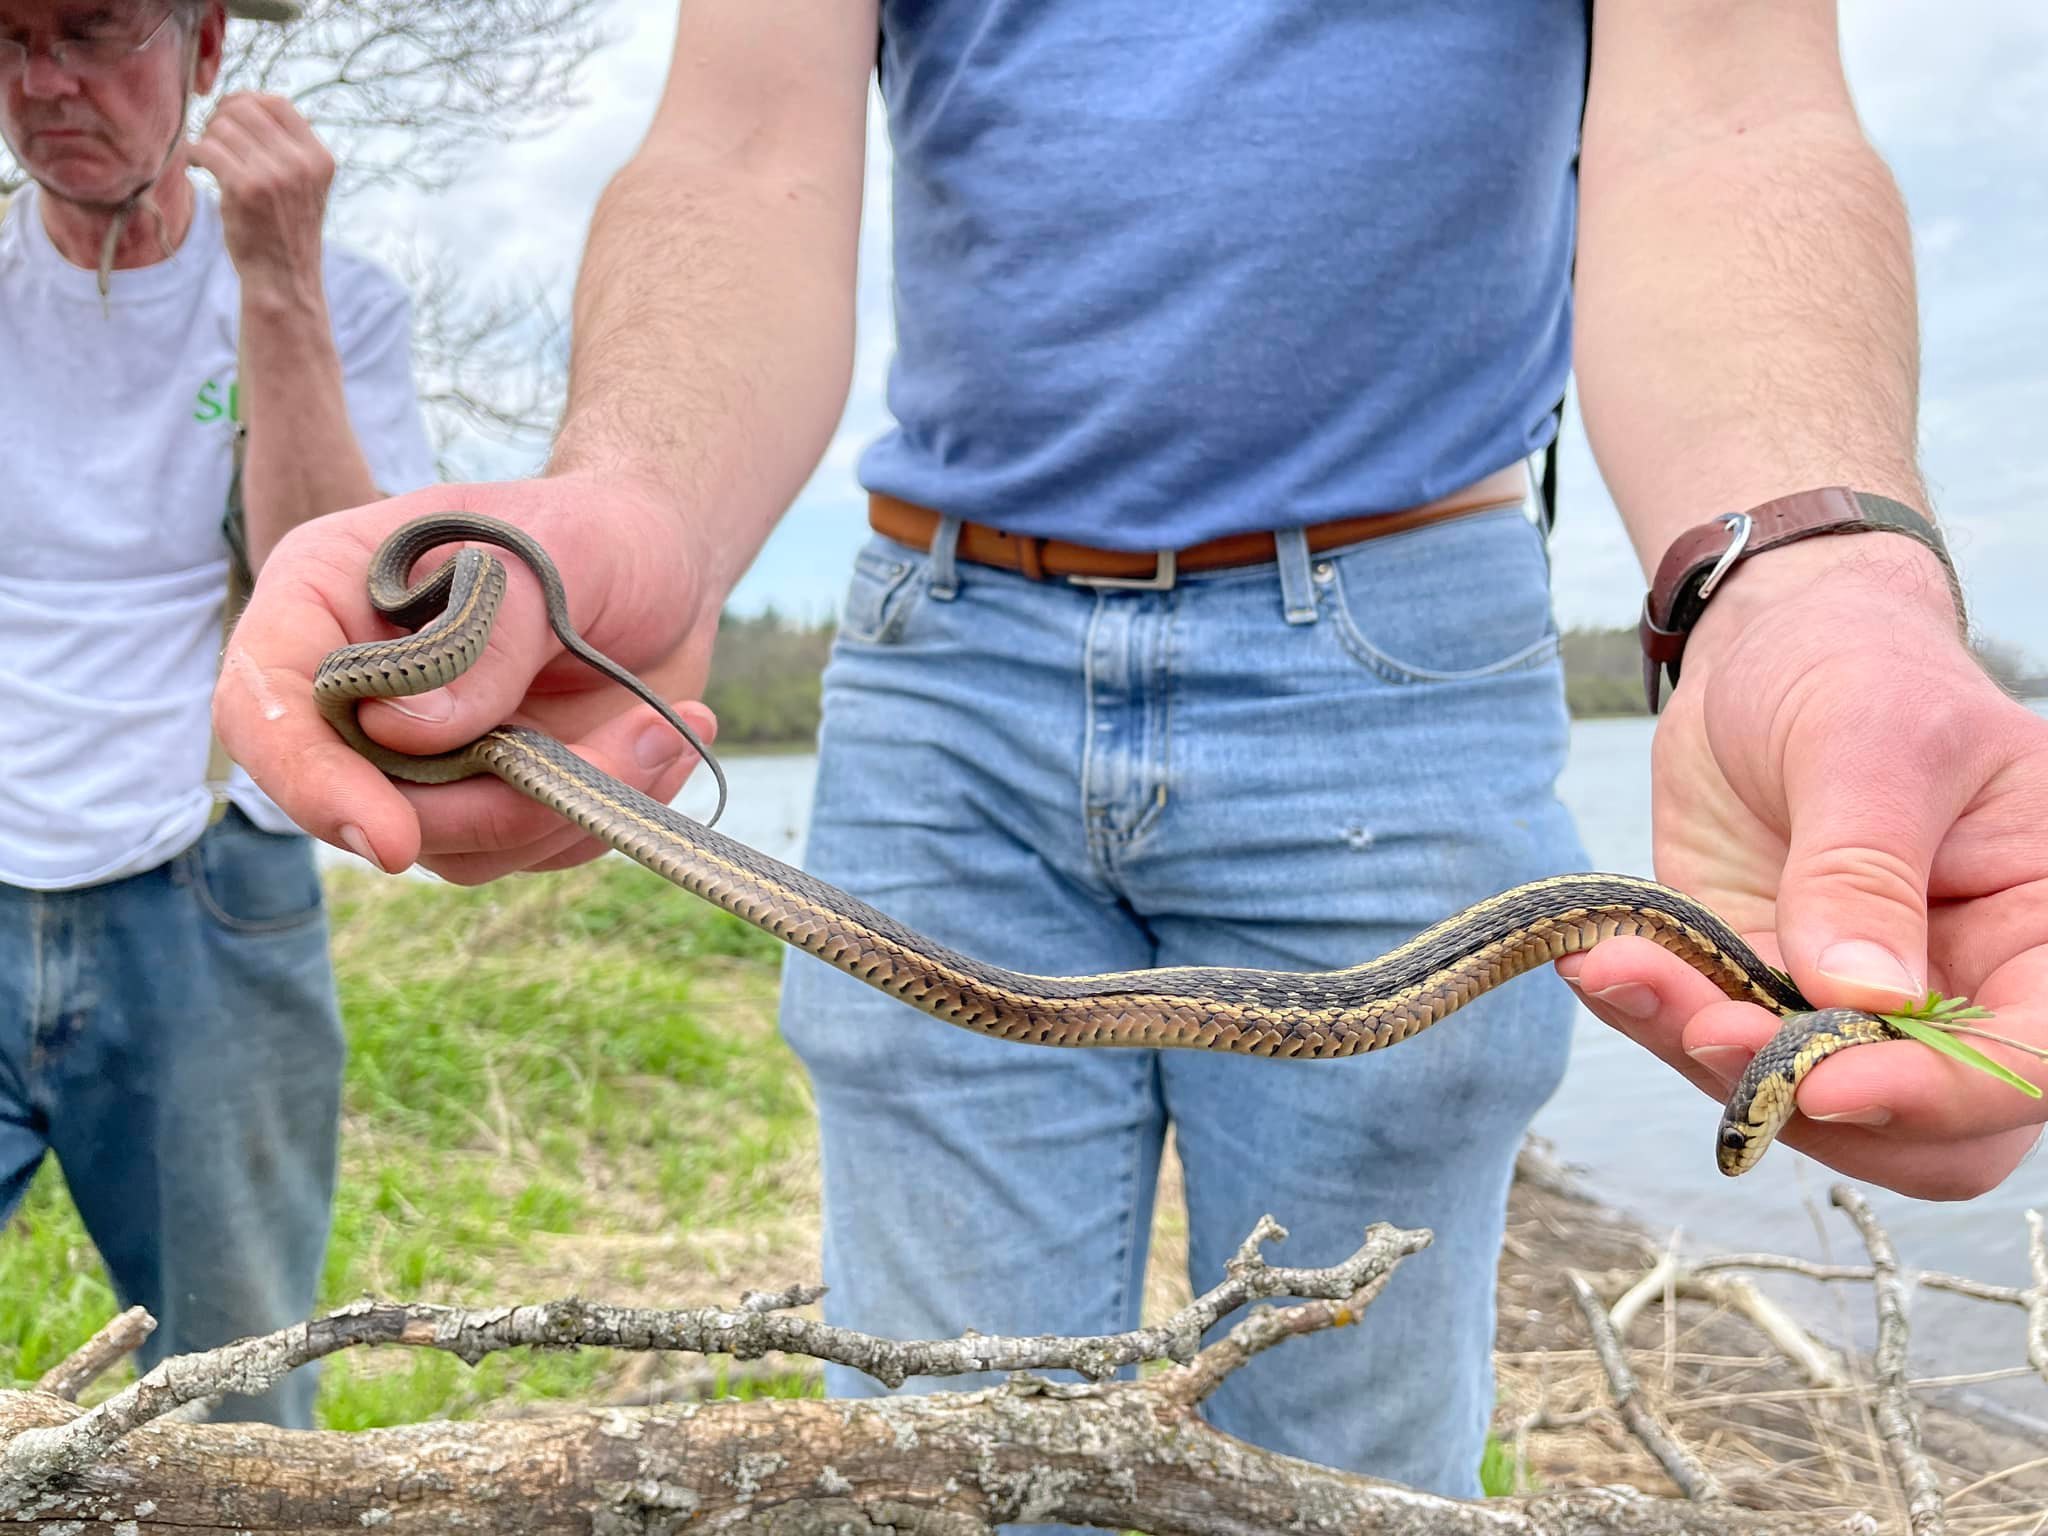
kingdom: Animalia
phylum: Chordata
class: Squamata
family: Colubridae
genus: Thamnophis
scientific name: Thamnophis sirtalis
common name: Common garter snake
